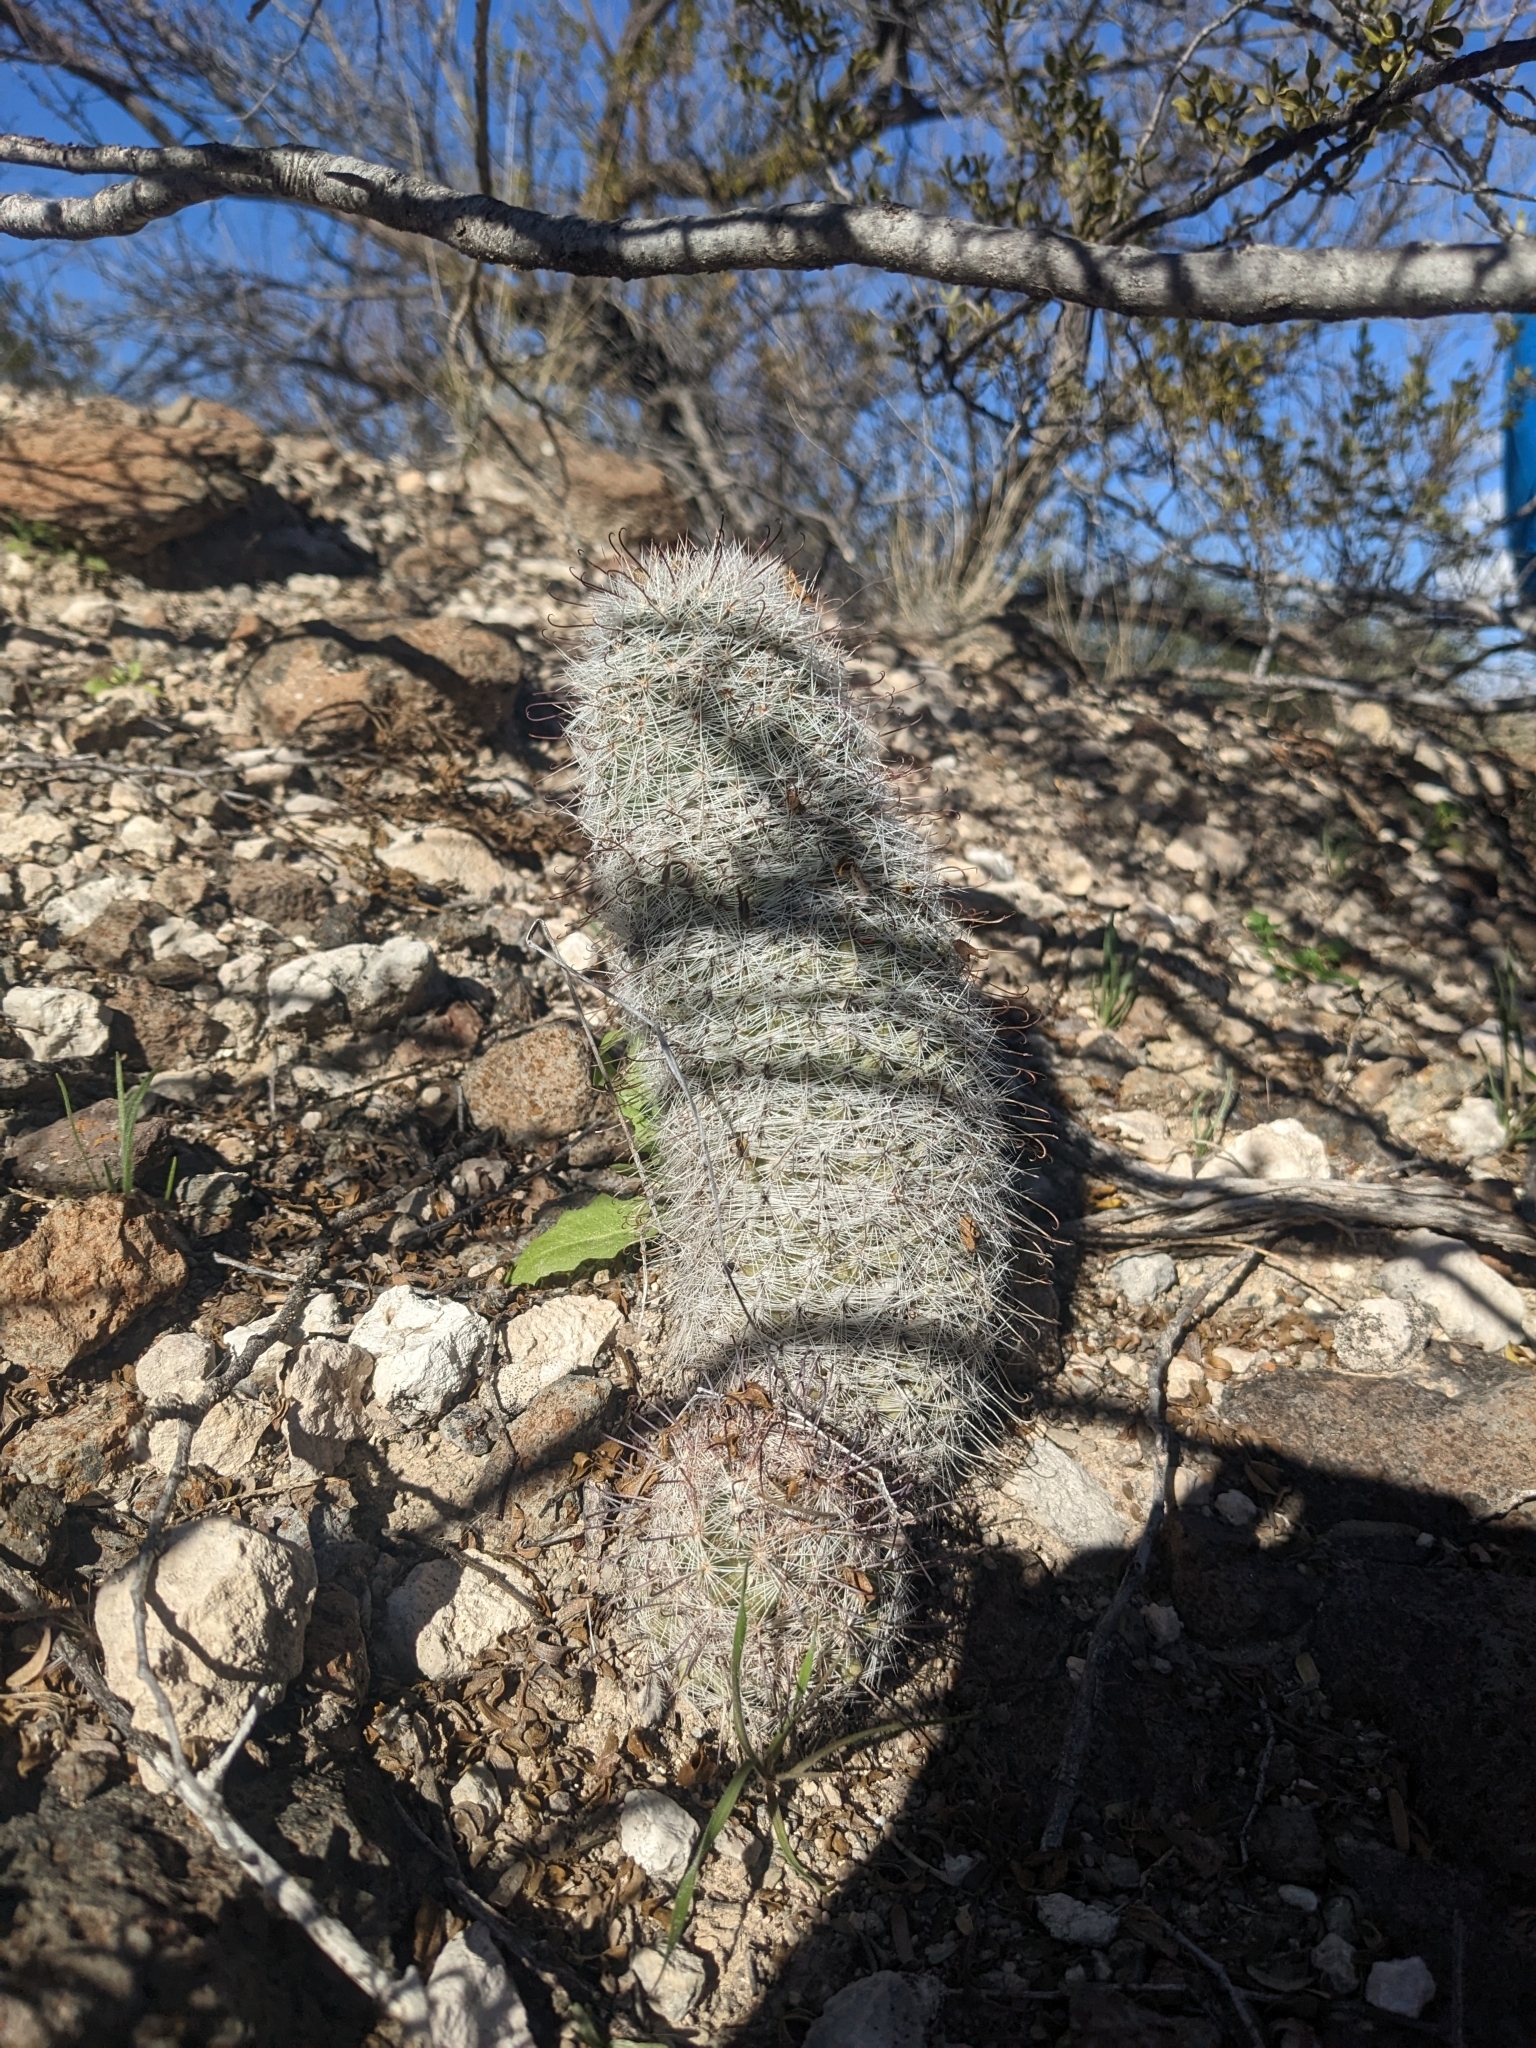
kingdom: Plantae
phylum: Tracheophyta
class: Magnoliopsida
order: Caryophyllales
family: Cactaceae
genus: Cochemiea
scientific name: Cochemiea grahamii
